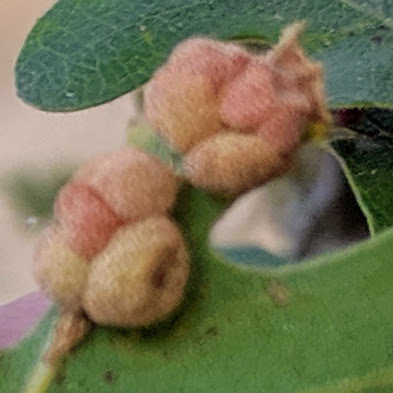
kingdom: Animalia
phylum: Arthropoda
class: Insecta
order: Hymenoptera
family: Cynipidae
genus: Andricus
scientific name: Andricus
